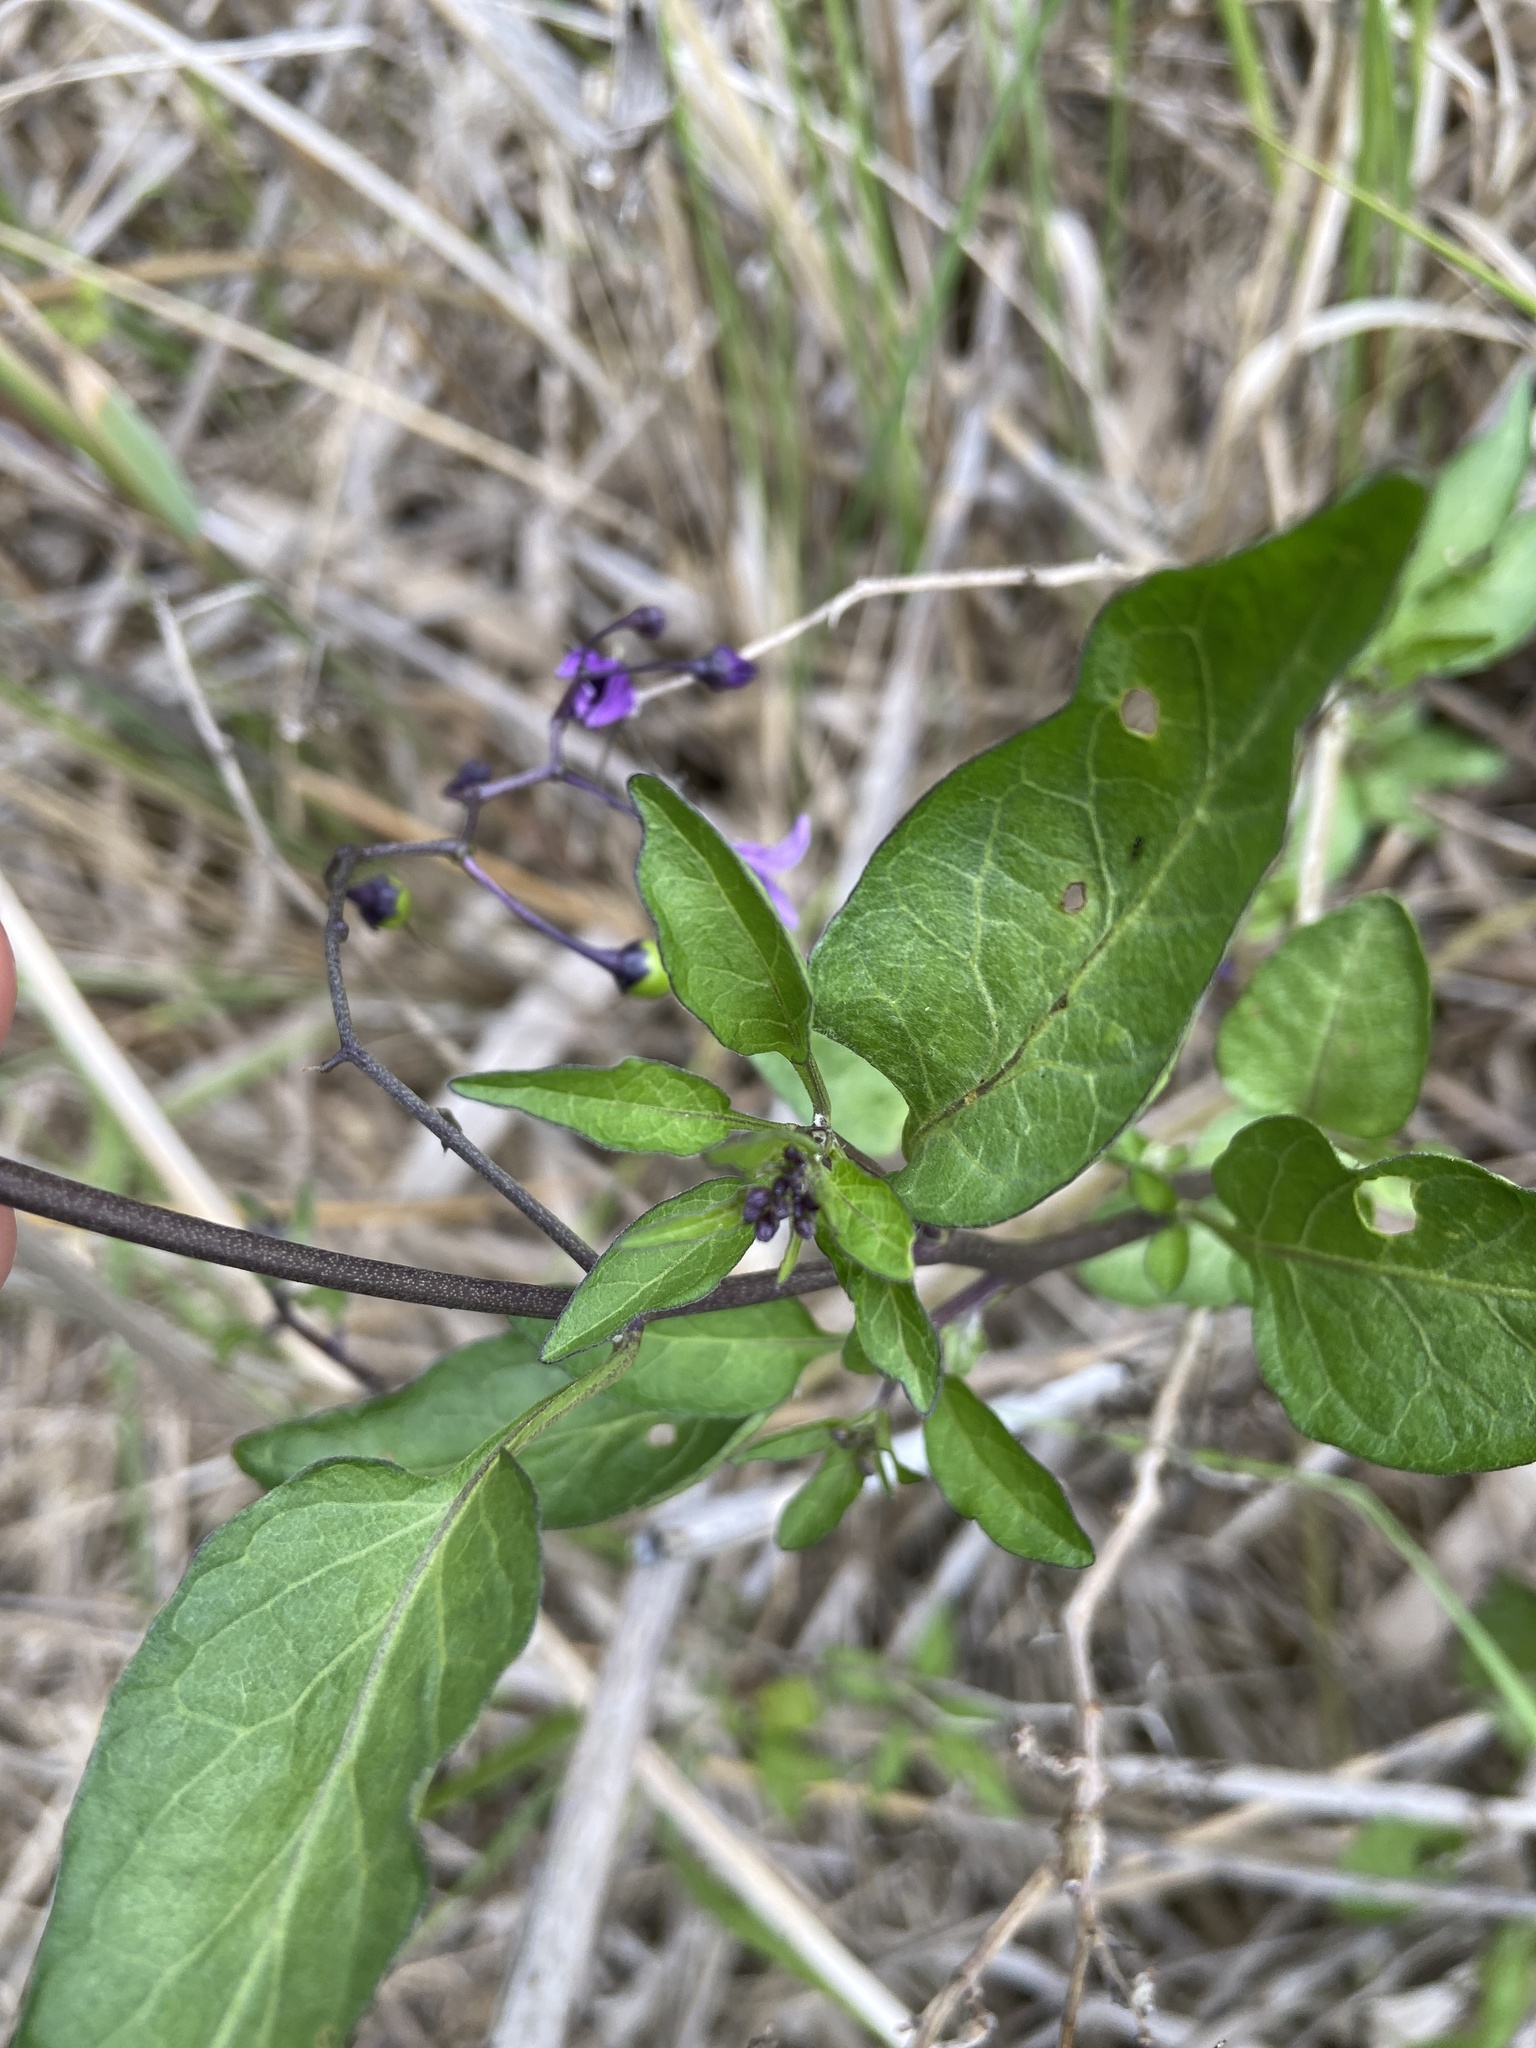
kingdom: Plantae
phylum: Tracheophyta
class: Magnoliopsida
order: Solanales
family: Solanaceae
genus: Solanum
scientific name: Solanum dulcamara
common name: Climbing nightshade
